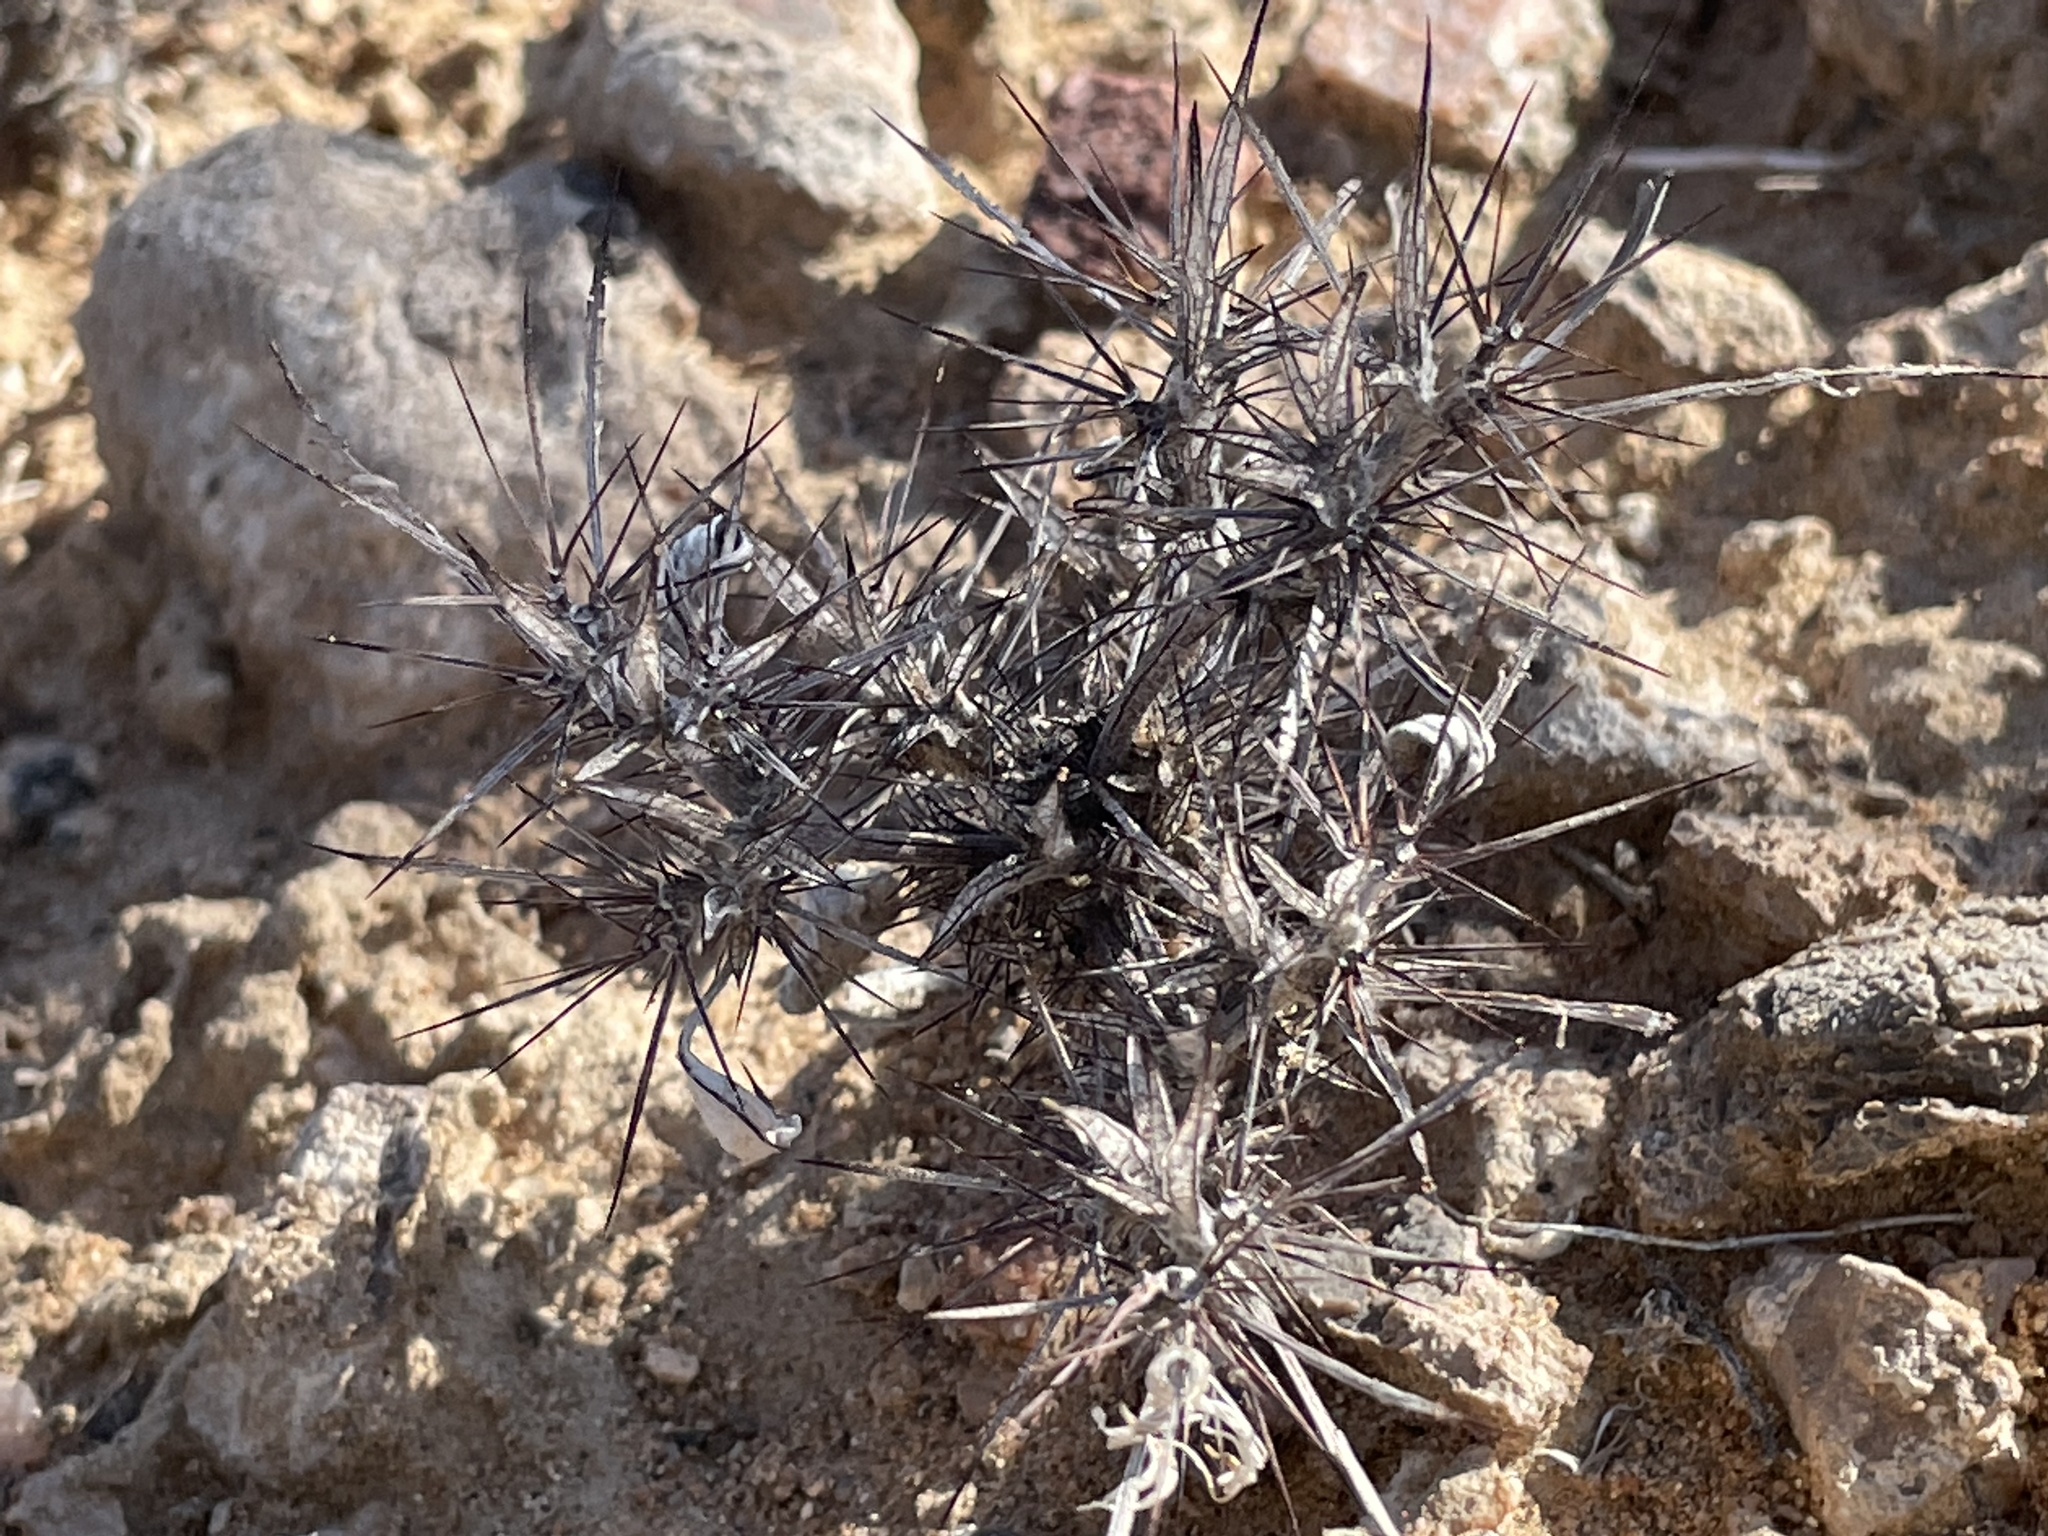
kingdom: Plantae
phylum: Tracheophyta
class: Magnoliopsida
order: Caryophyllales
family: Polygonaceae
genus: Chorizanthe
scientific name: Chorizanthe rigida
